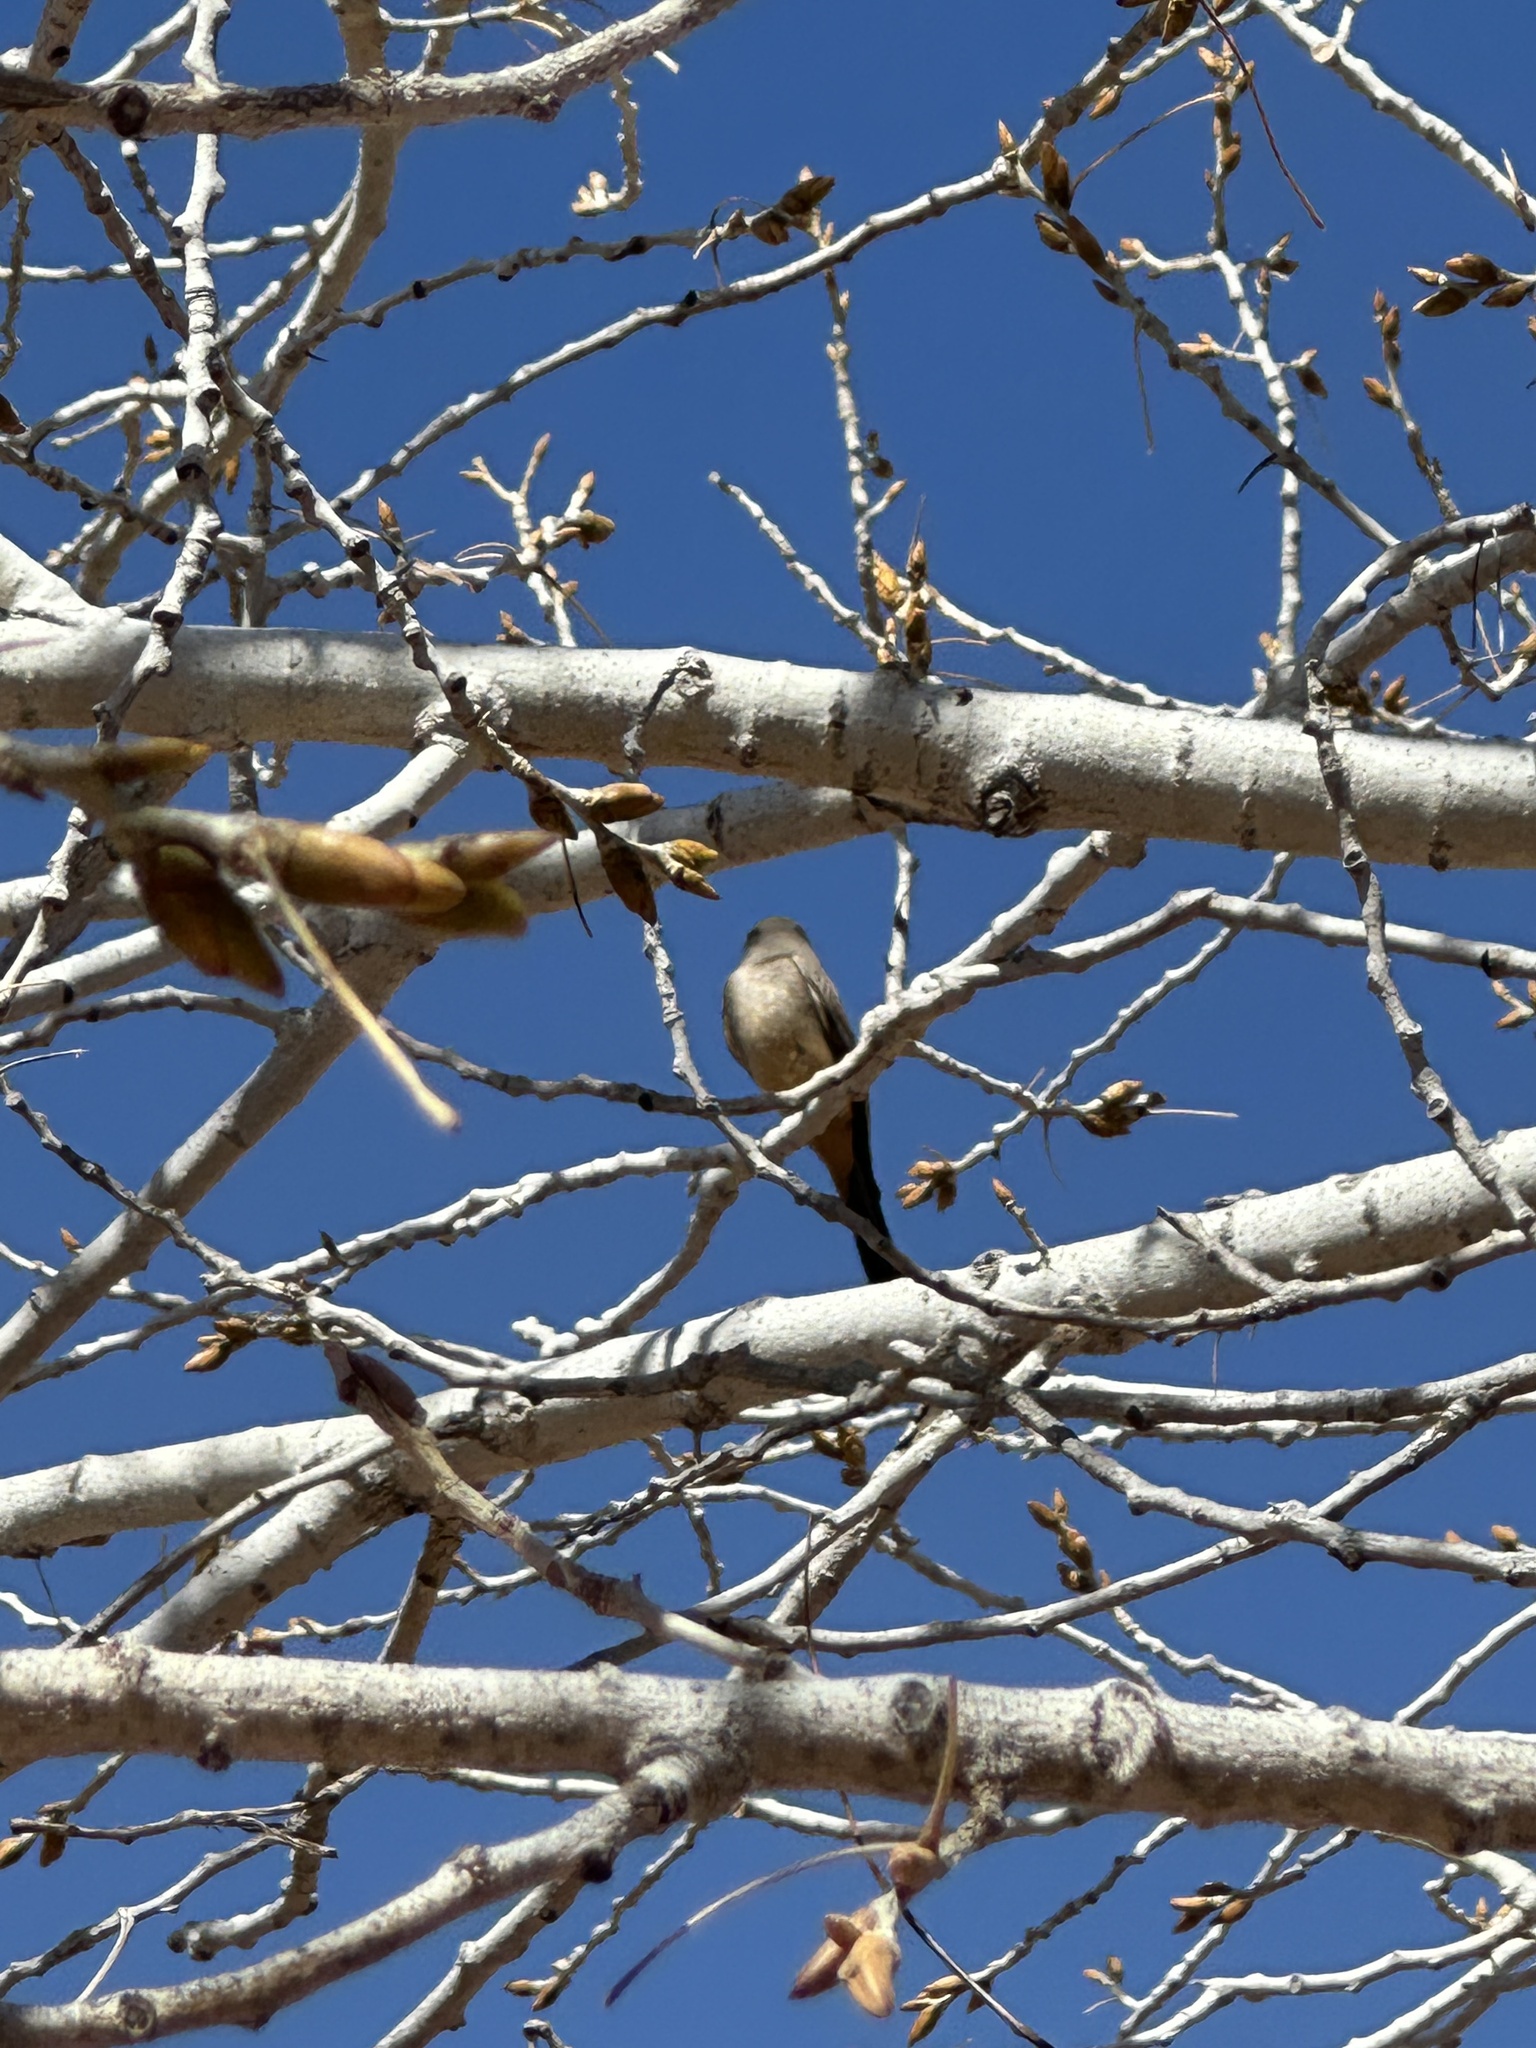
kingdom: Animalia
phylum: Chordata
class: Aves
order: Passeriformes
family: Tyrannidae
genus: Sayornis
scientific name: Sayornis saya
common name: Say's phoebe
